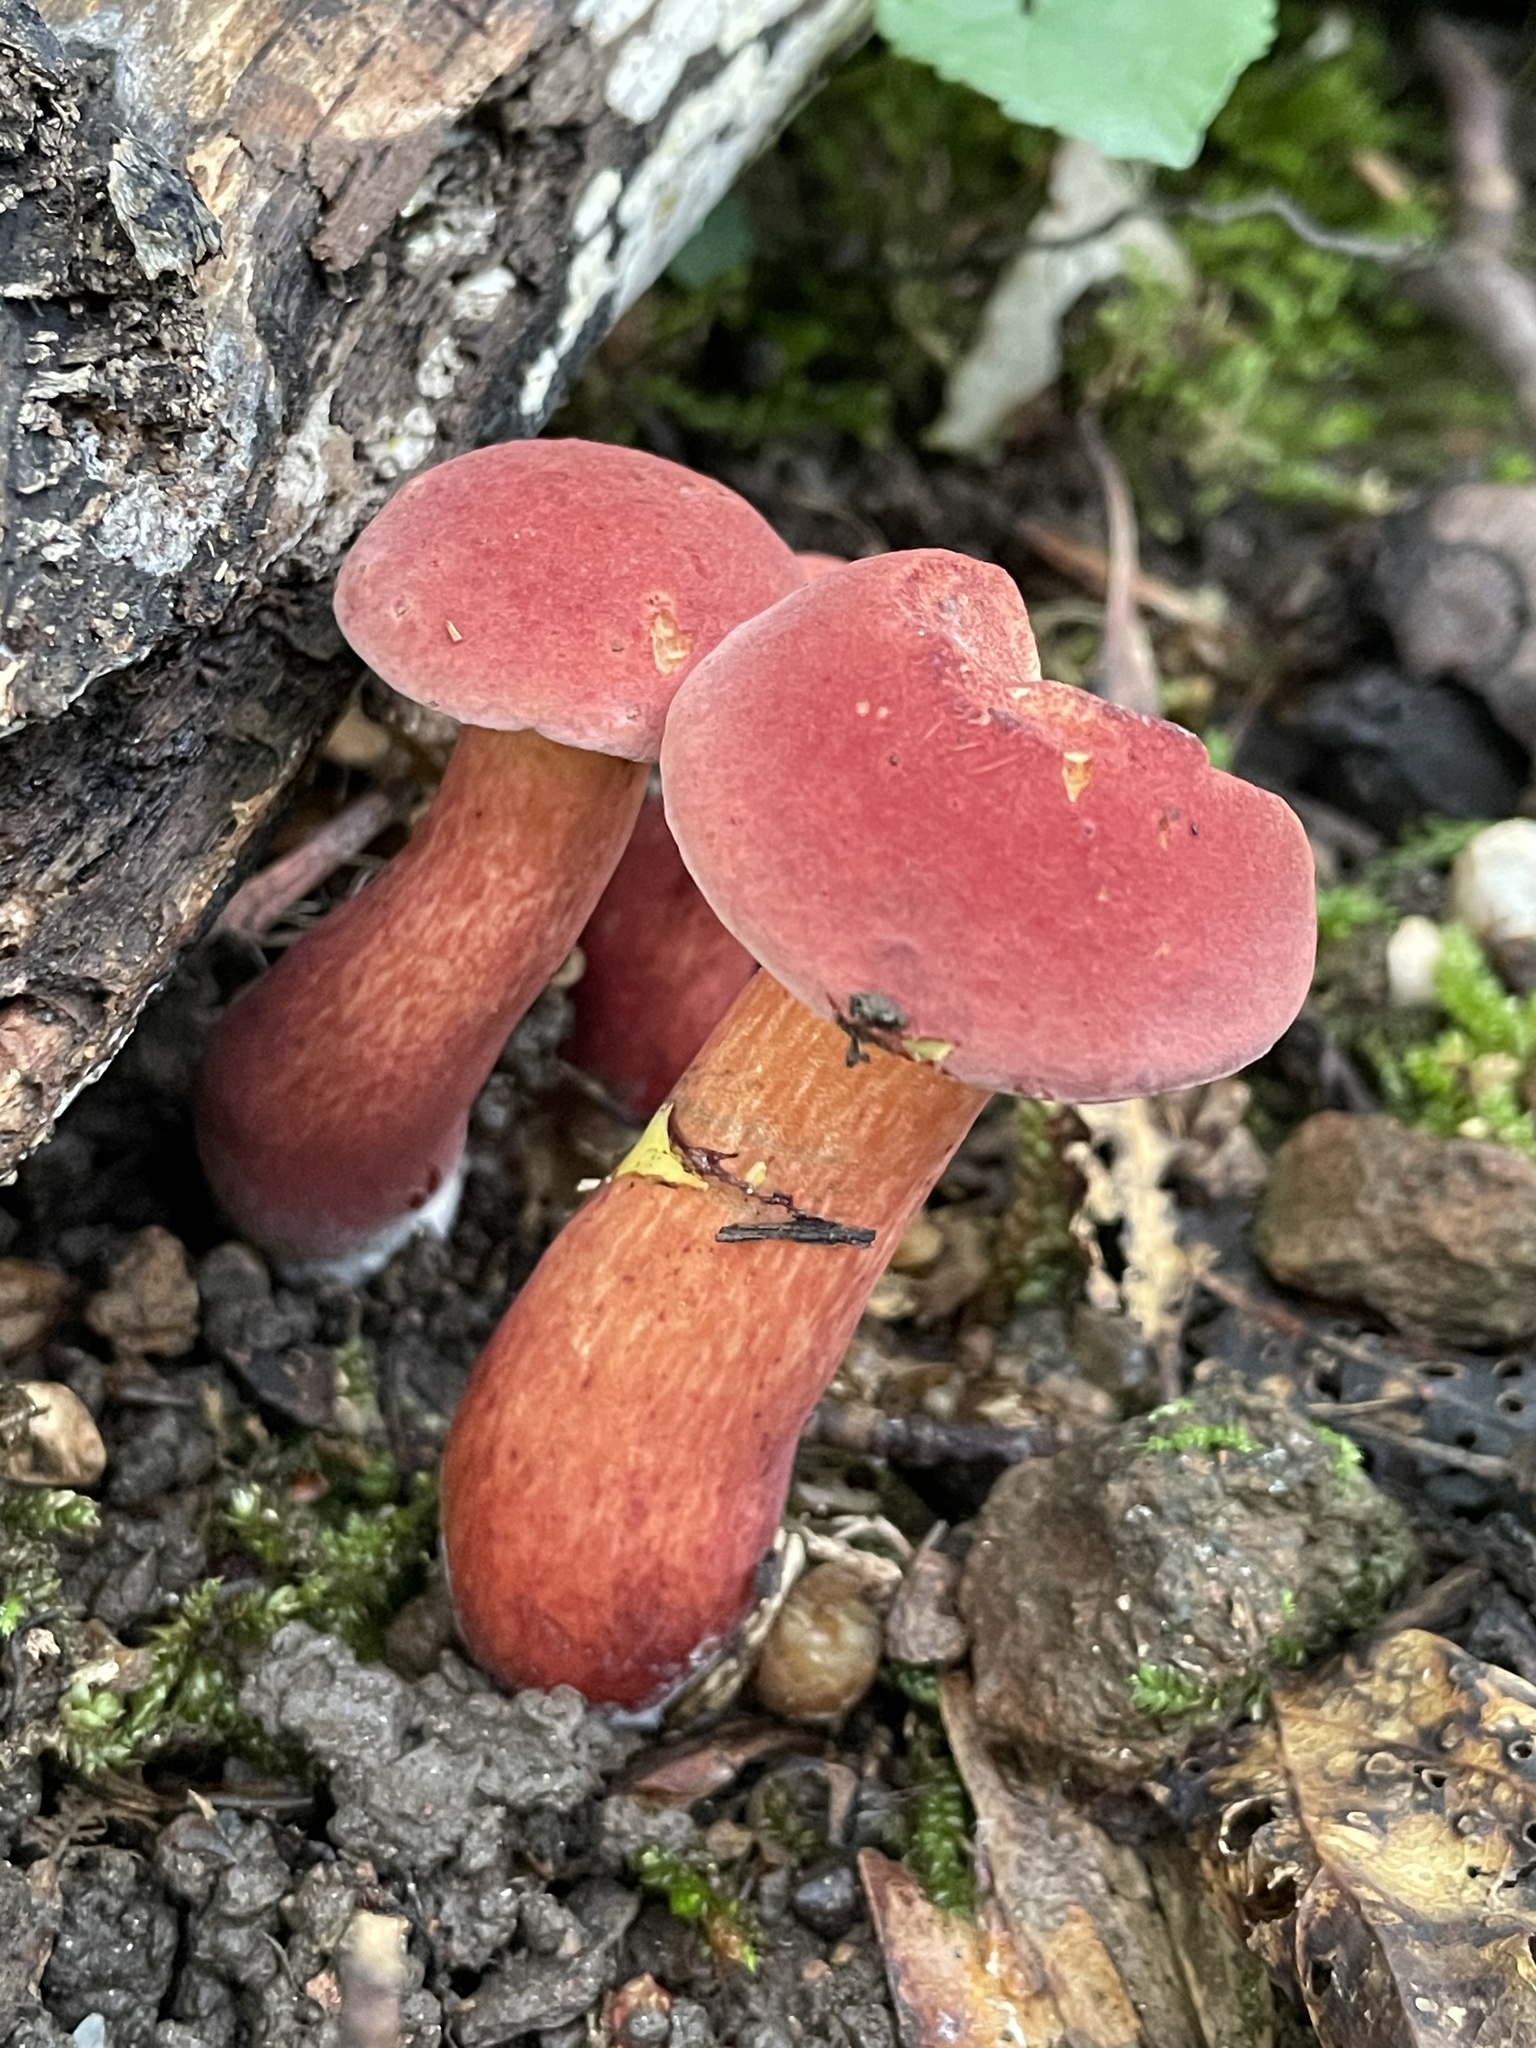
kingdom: Fungi
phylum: Basidiomycota
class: Agaricomycetes
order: Boletales
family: Boletaceae
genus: Baorangia
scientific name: Baorangia bicolor
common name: Two-colored bolete
